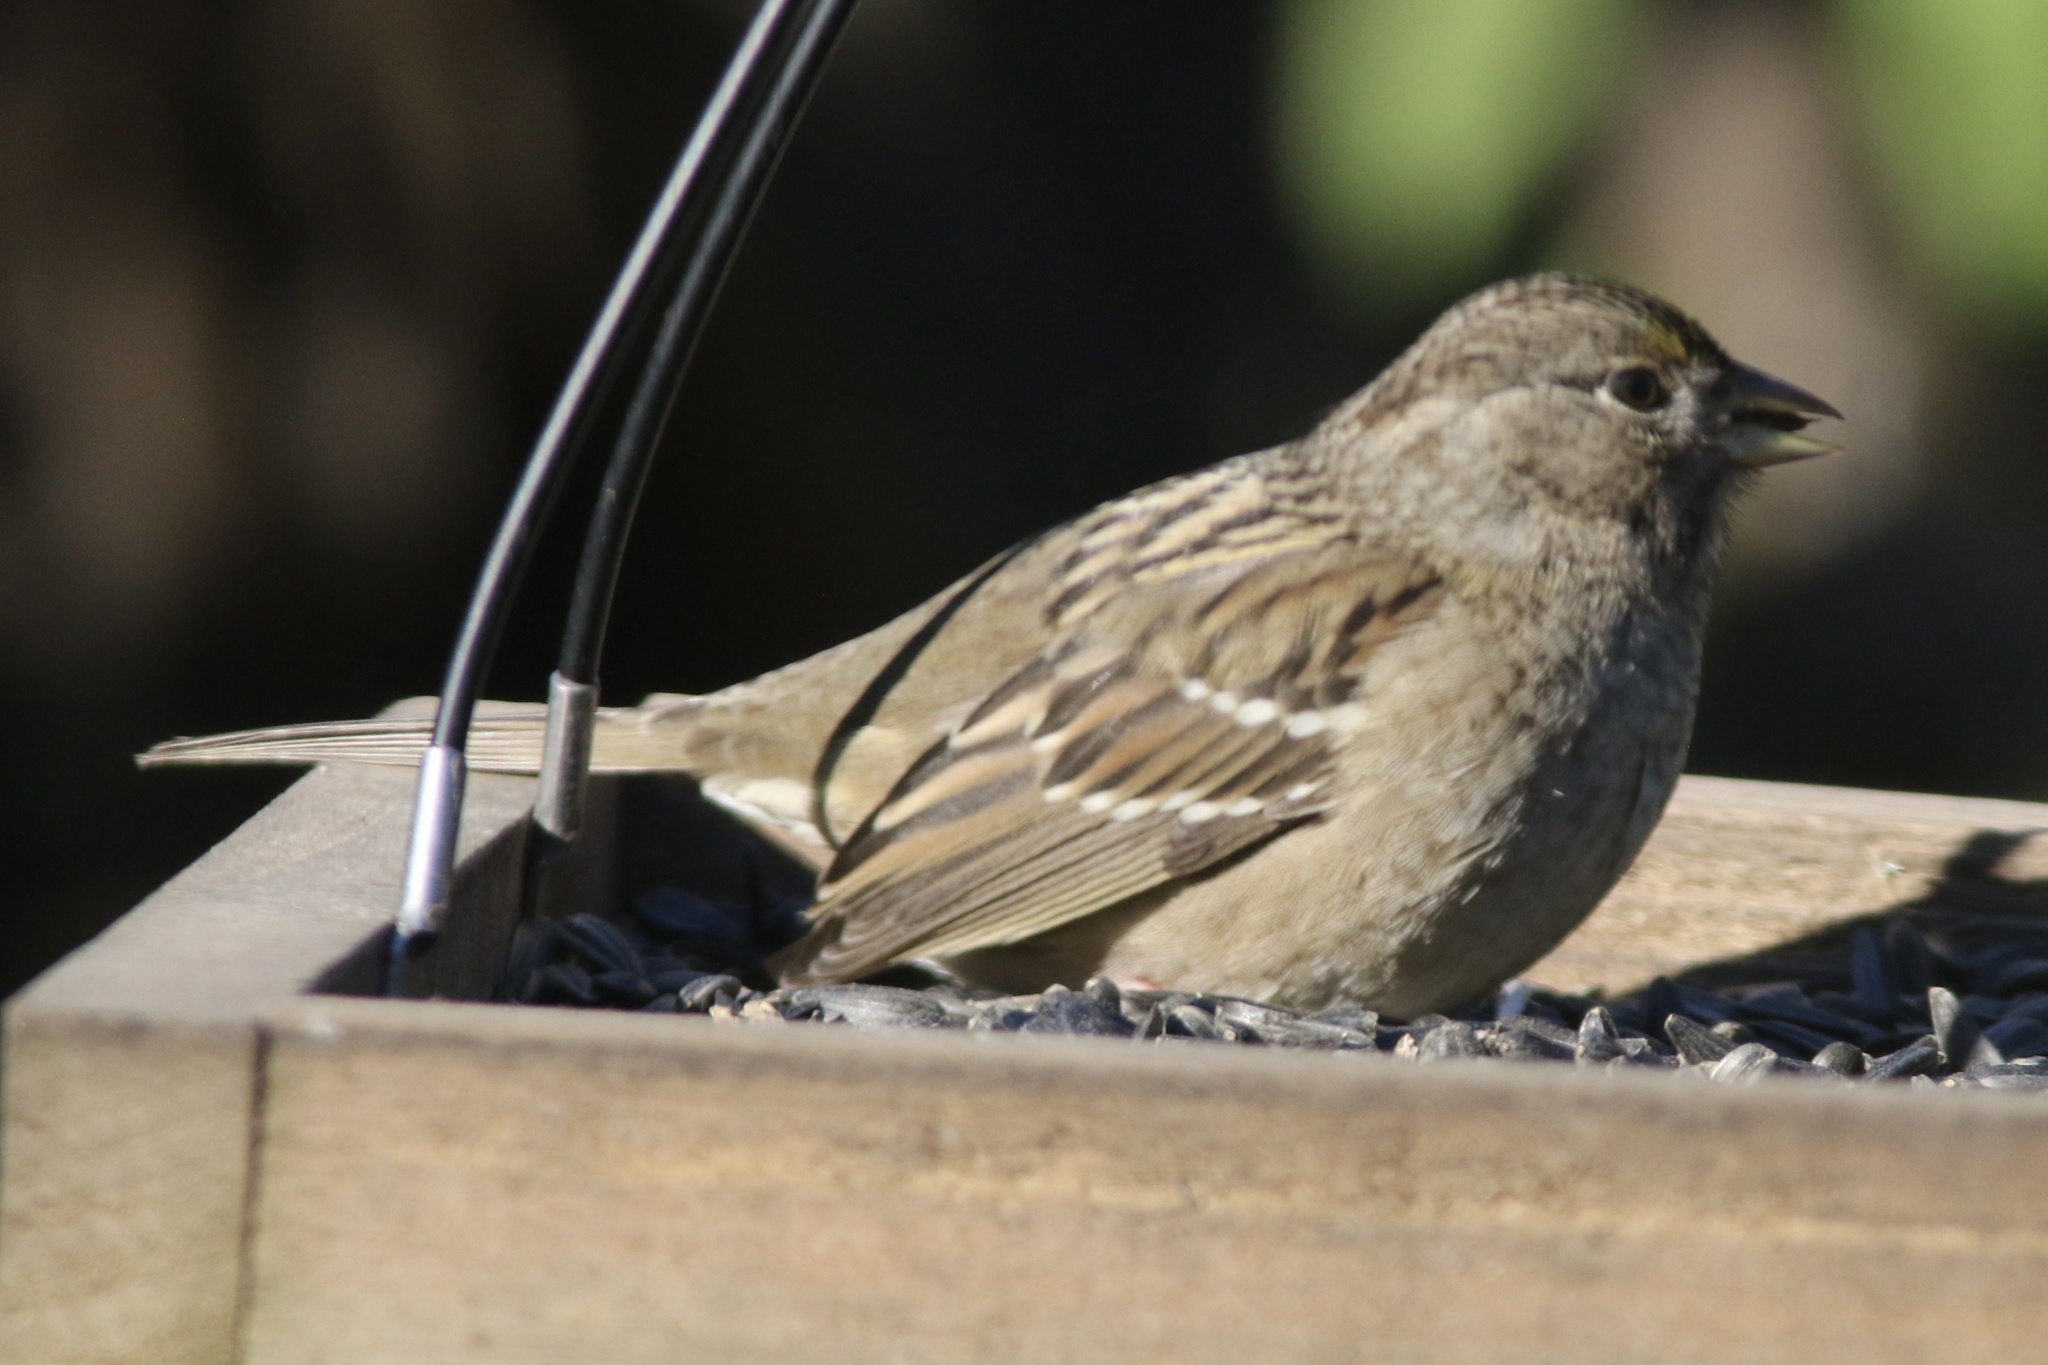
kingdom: Animalia
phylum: Chordata
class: Aves
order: Passeriformes
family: Passerellidae
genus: Zonotrichia
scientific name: Zonotrichia atricapilla
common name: Golden-crowned sparrow
